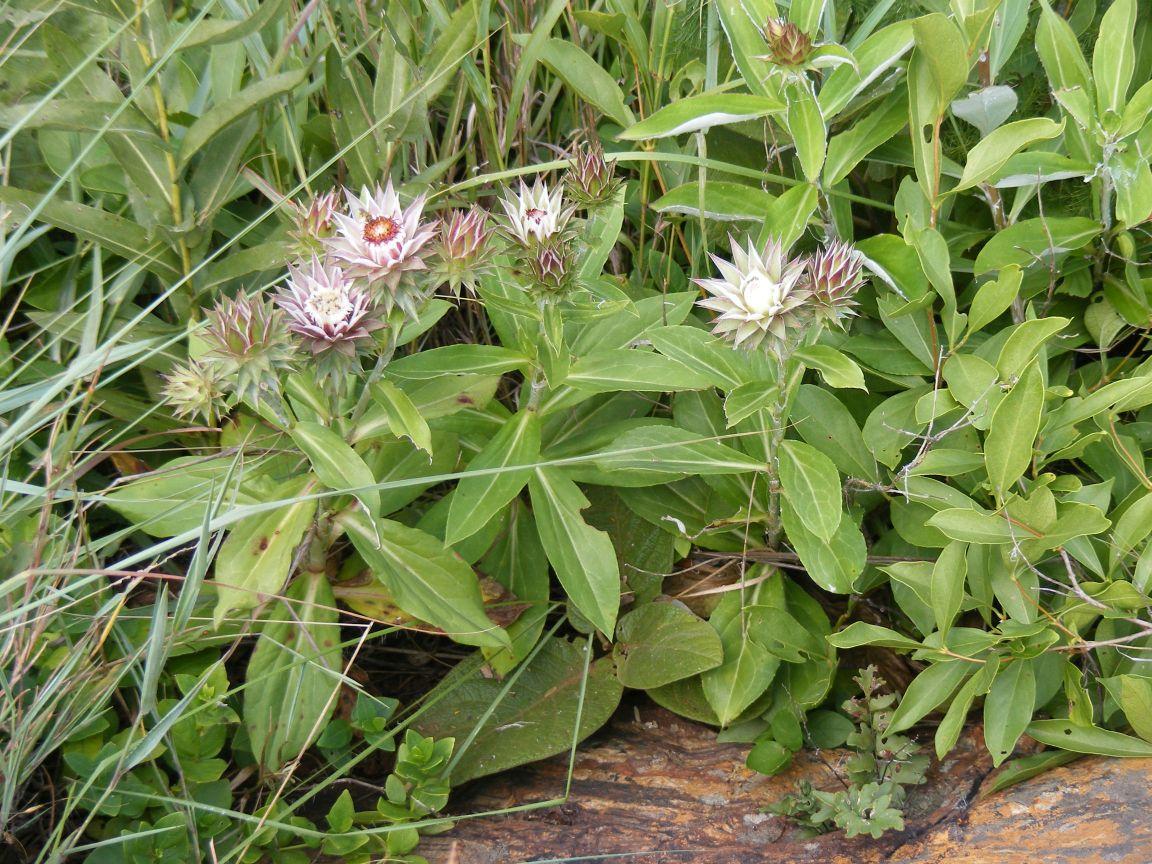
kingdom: Plantae
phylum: Tracheophyta
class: Magnoliopsida
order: Asterales
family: Asteraceae
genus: Macledium
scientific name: Macledium zeyheri
